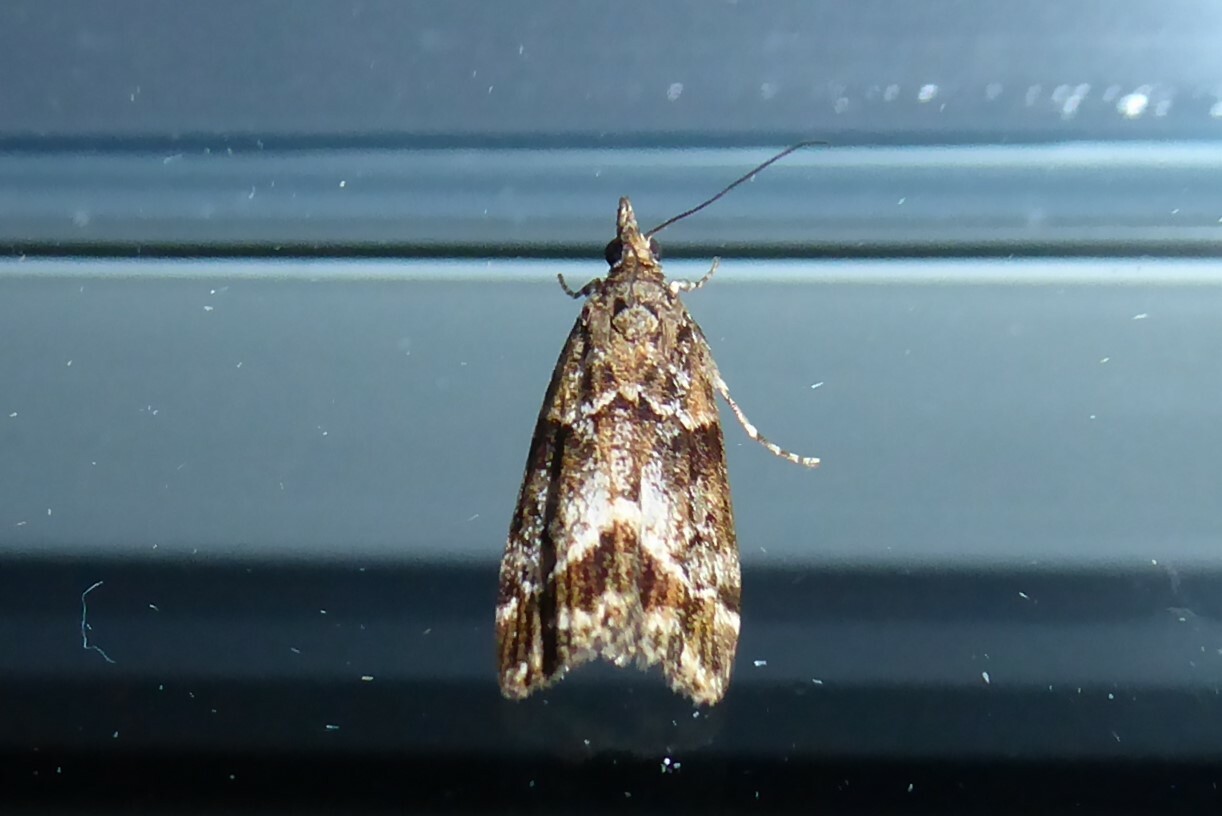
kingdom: Animalia
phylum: Arthropoda
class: Insecta
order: Lepidoptera
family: Crambidae
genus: Eudonia
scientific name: Eudonia legnota
